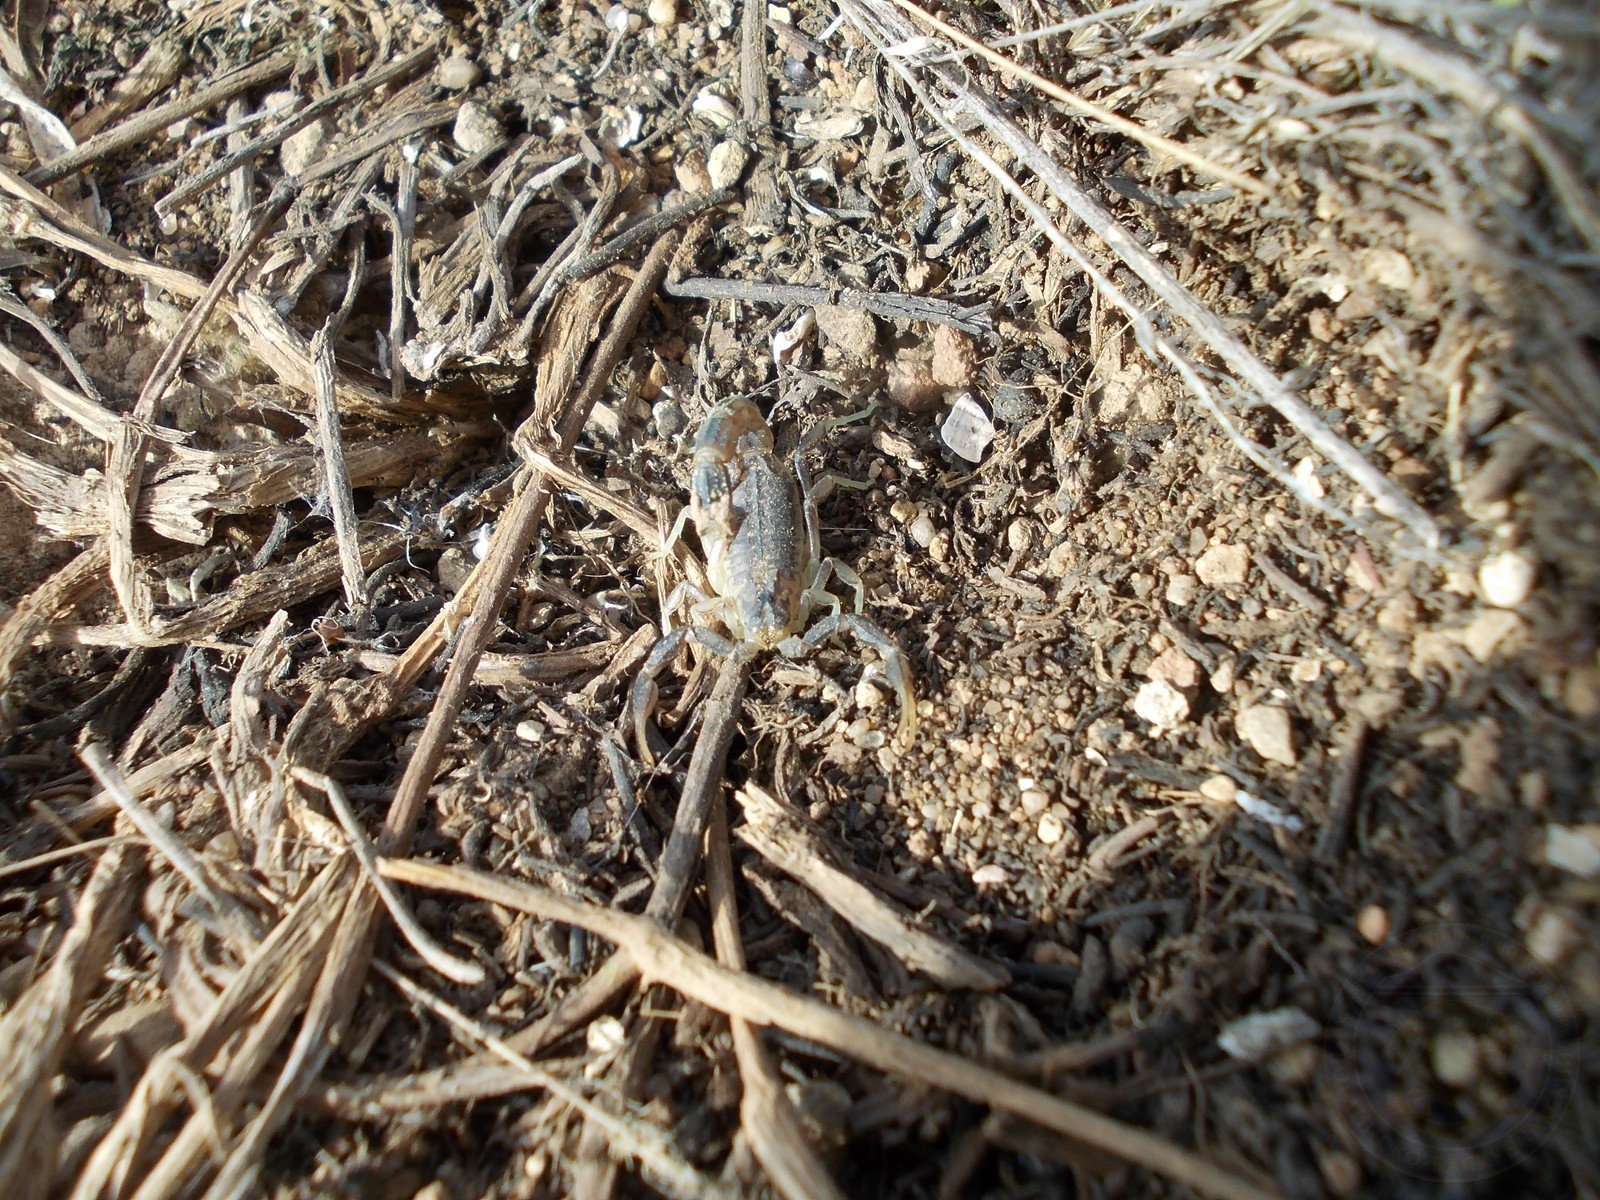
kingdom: Animalia
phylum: Arthropoda
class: Arachnida
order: Scorpiones
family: Buthidae
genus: Mesobuthus
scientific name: Mesobuthus bogdoensis
